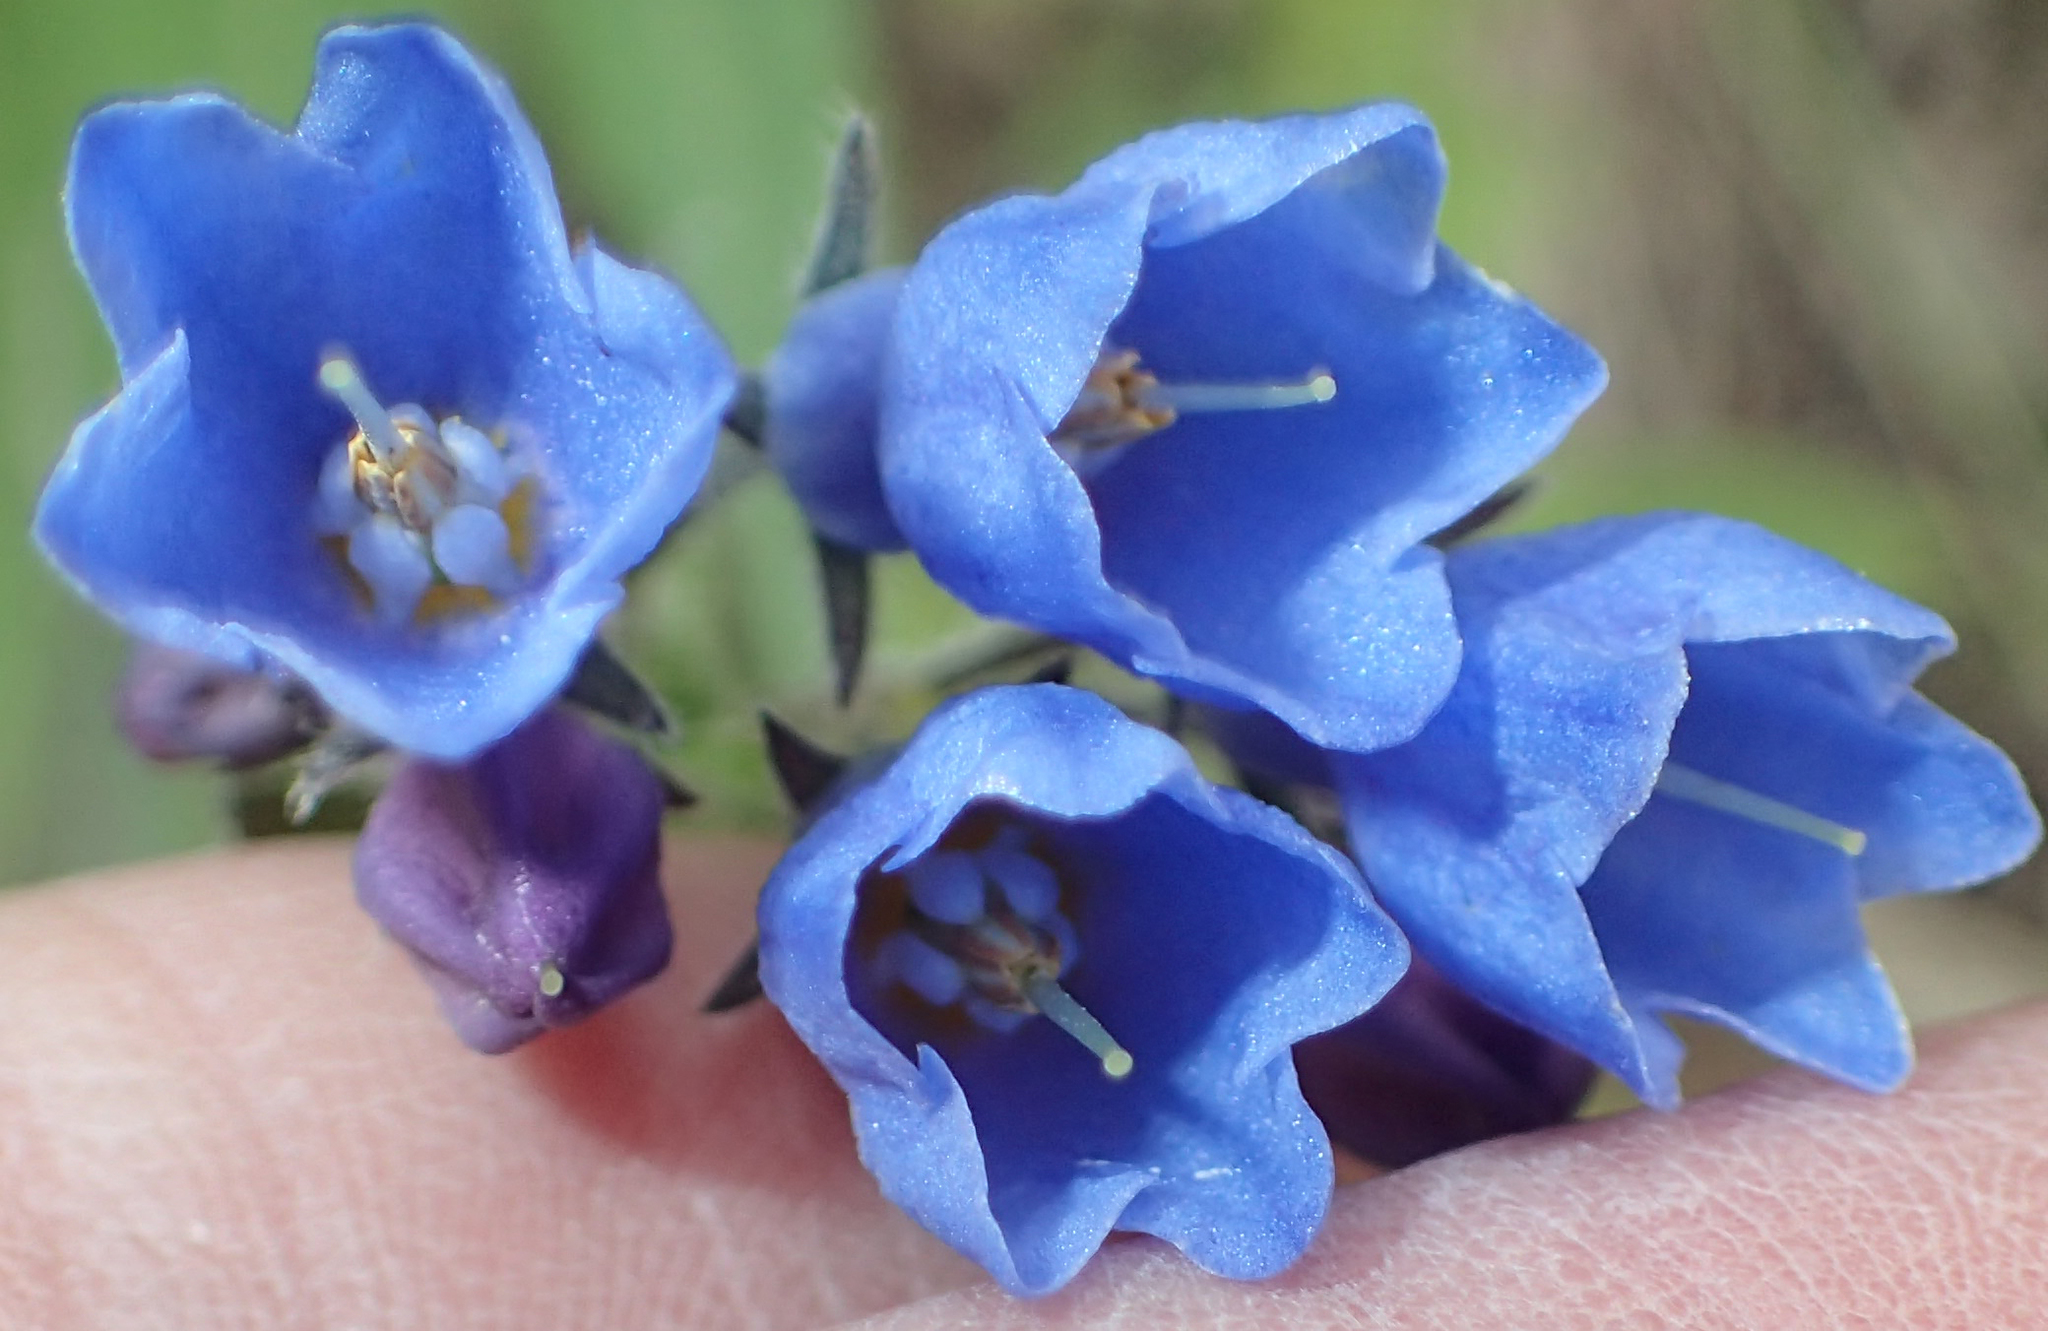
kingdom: Plantae
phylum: Tracheophyta
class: Magnoliopsida
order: Boraginales
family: Boraginaceae
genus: Mertensia
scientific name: Mertensia paniculata
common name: Panicled bluebells
